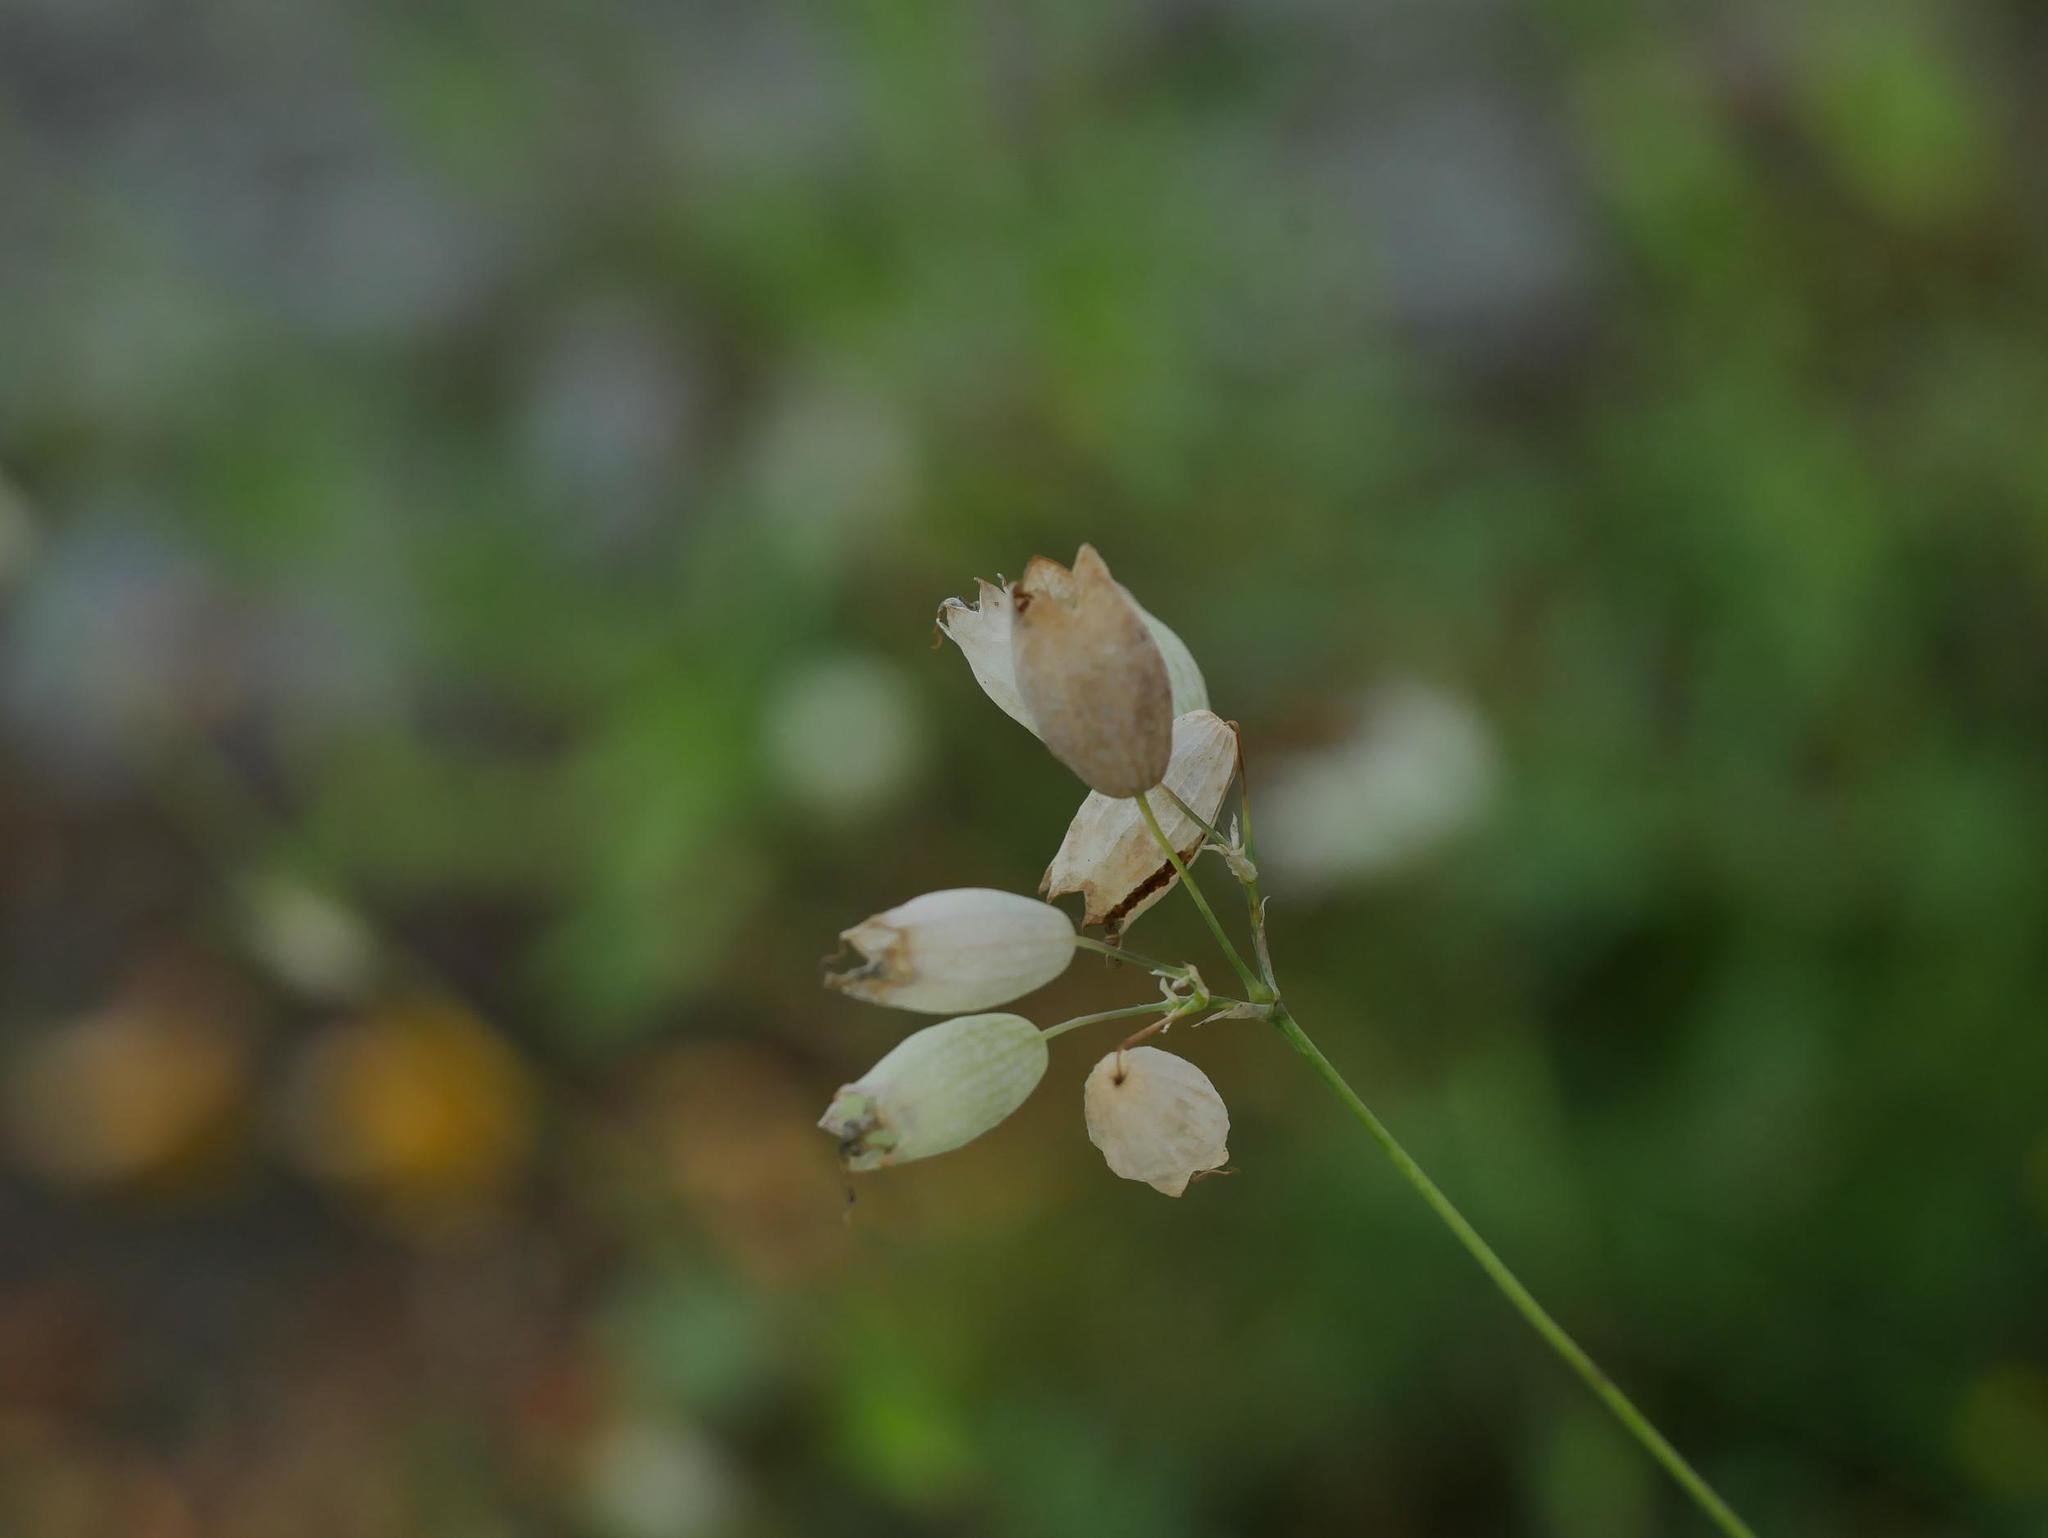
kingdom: Plantae
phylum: Tracheophyta
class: Magnoliopsida
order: Caryophyllales
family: Caryophyllaceae
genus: Silene
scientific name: Silene vulgaris
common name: Bladder campion
